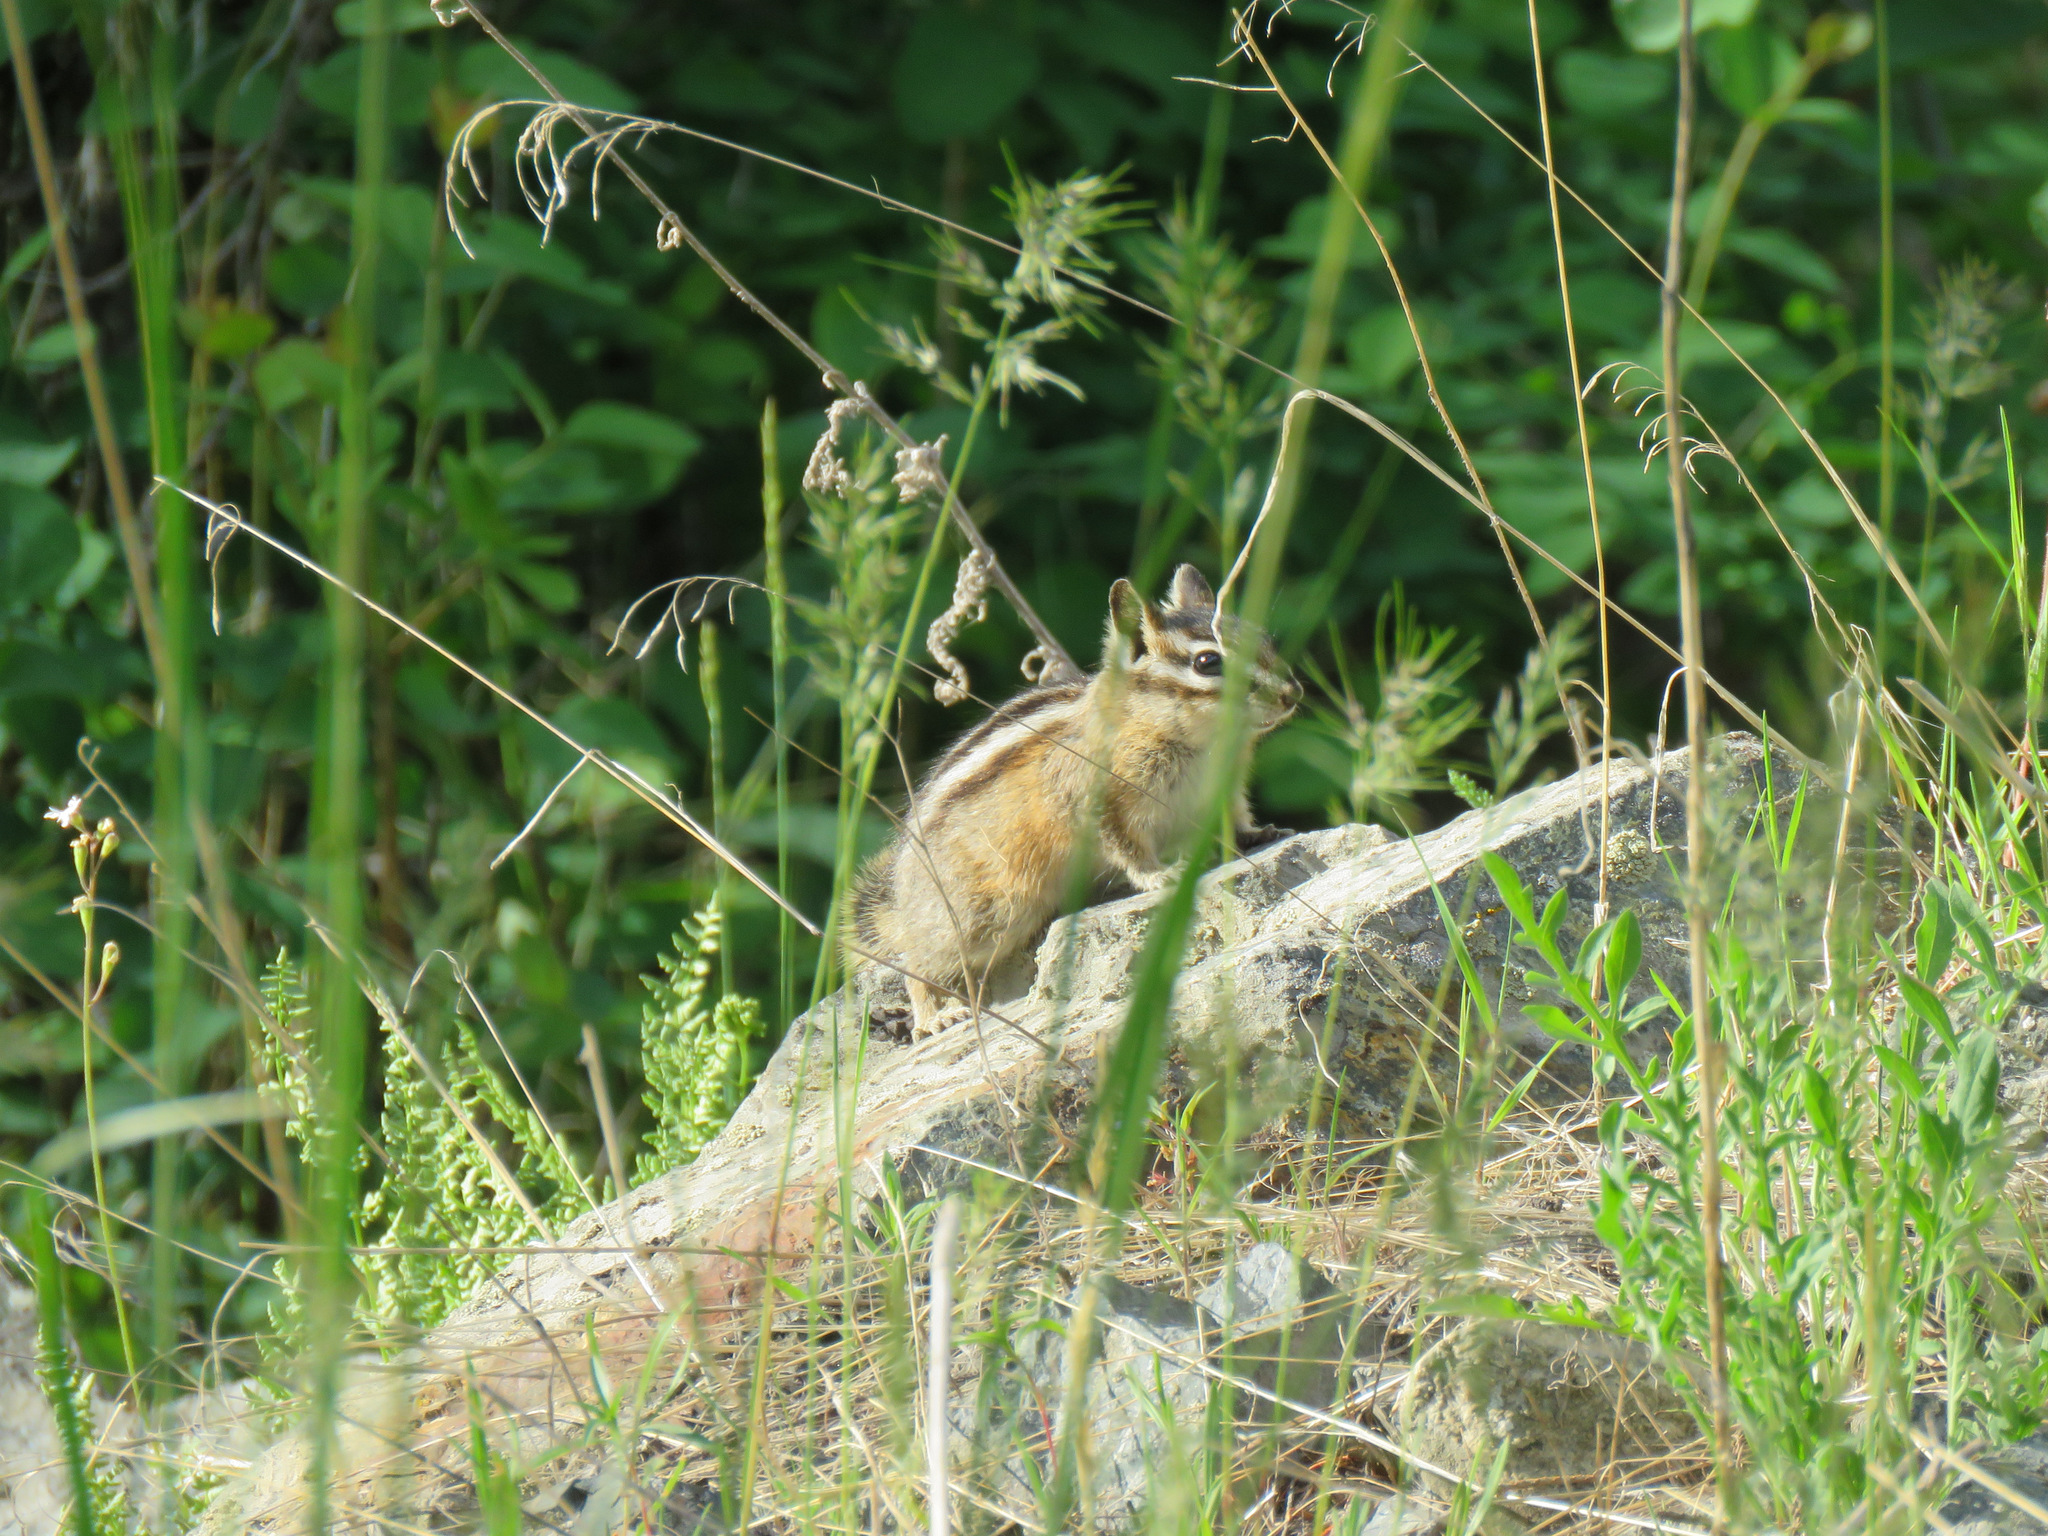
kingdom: Animalia
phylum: Chordata
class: Mammalia
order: Rodentia
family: Sciuridae
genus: Tamias
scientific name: Tamias amoenus
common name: Yellow-pine chipmunk
